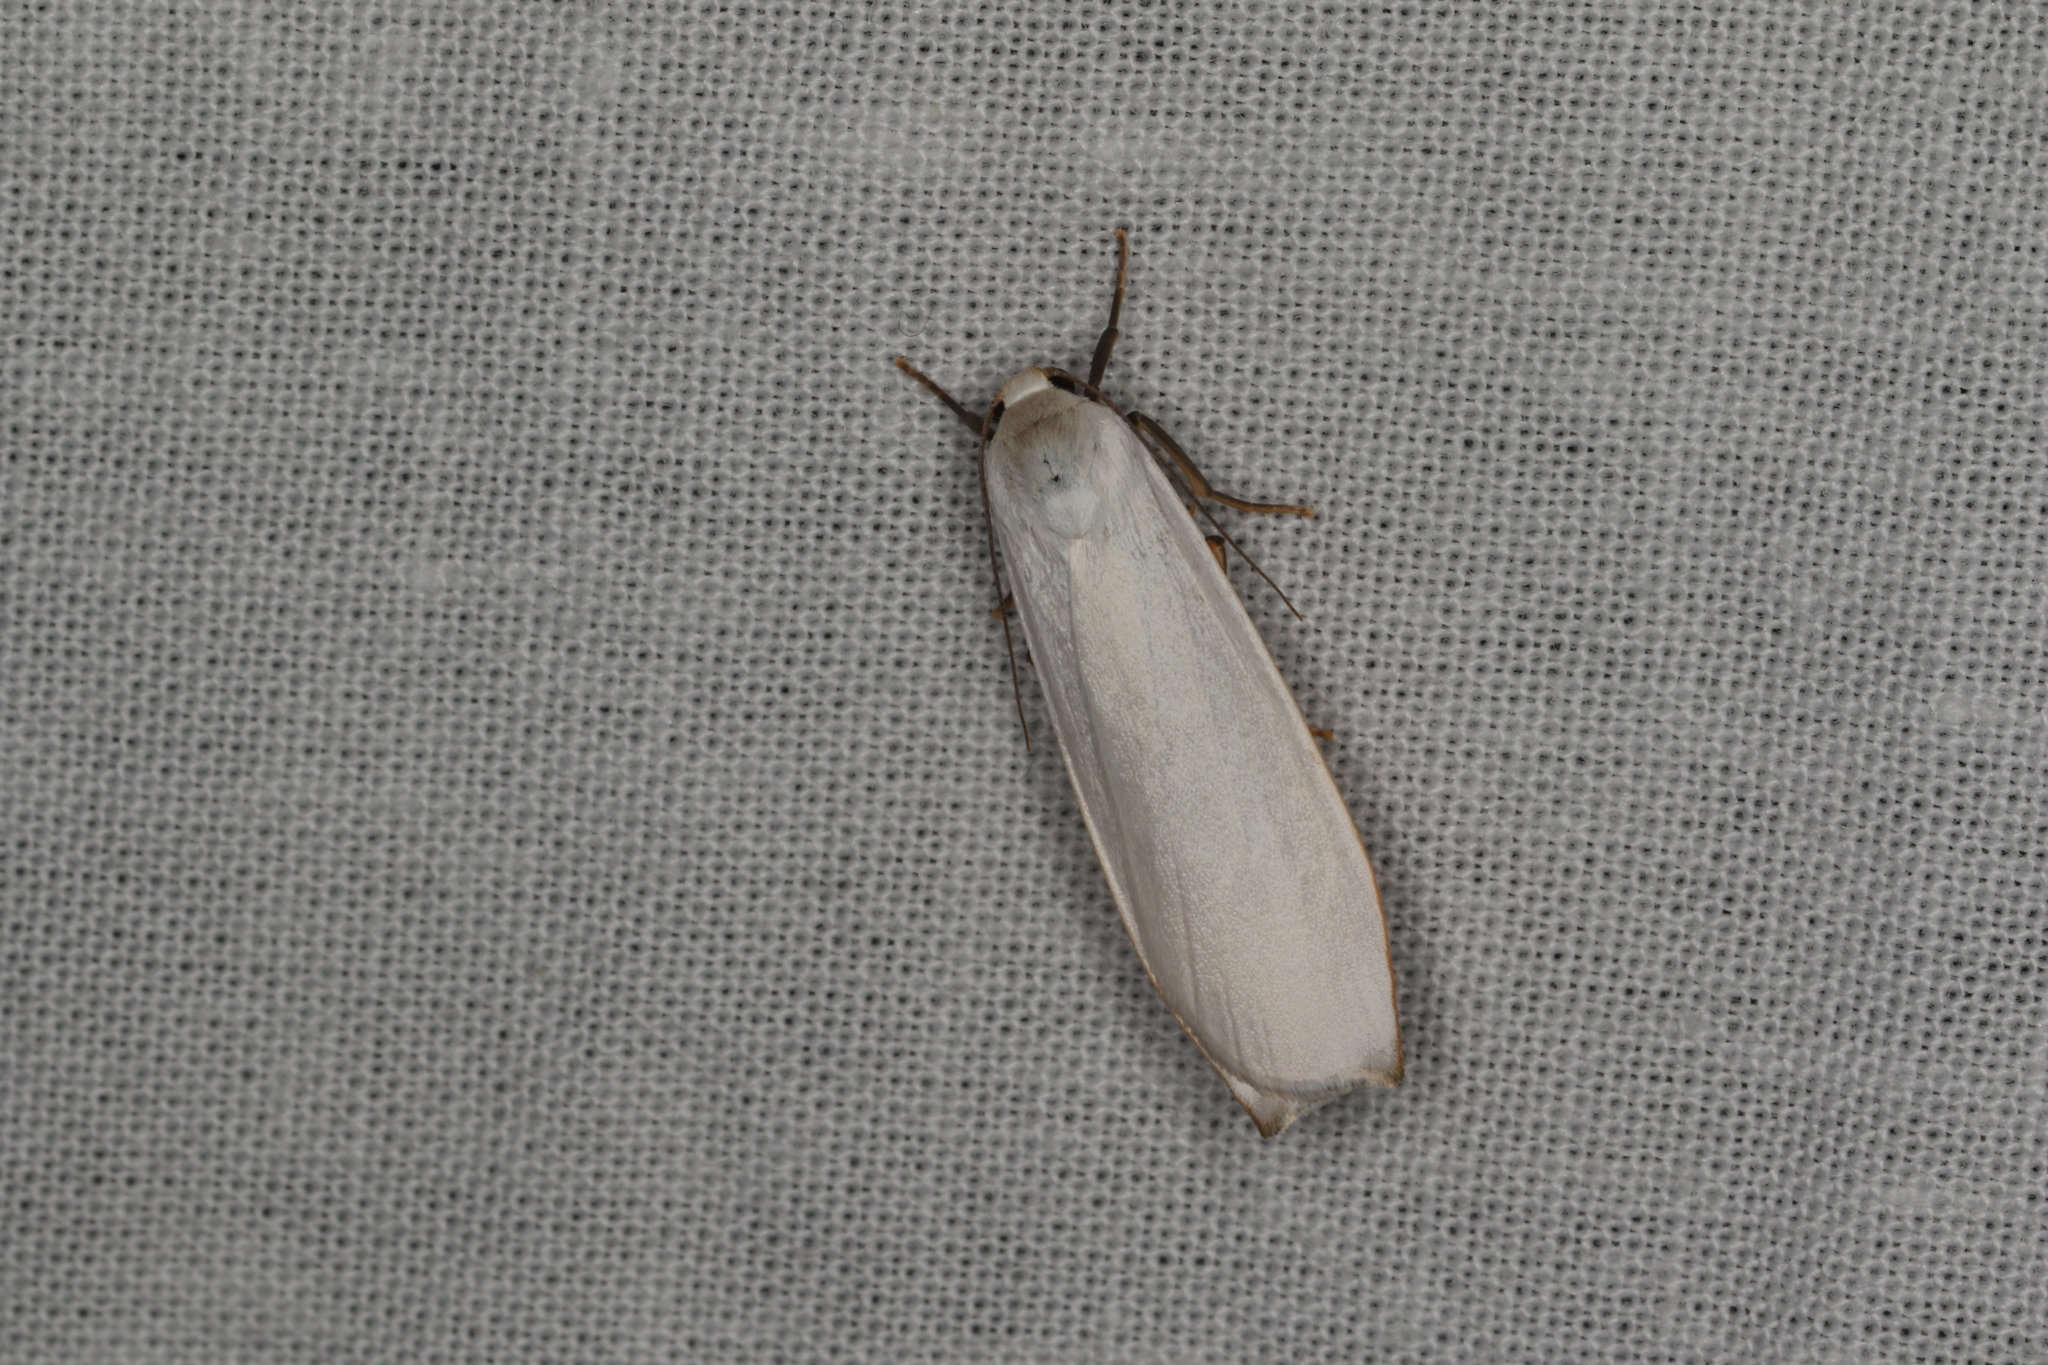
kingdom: Animalia
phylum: Arthropoda
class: Insecta
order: Lepidoptera
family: Erebidae
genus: Hesychopa
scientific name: Hesychopa chionora
